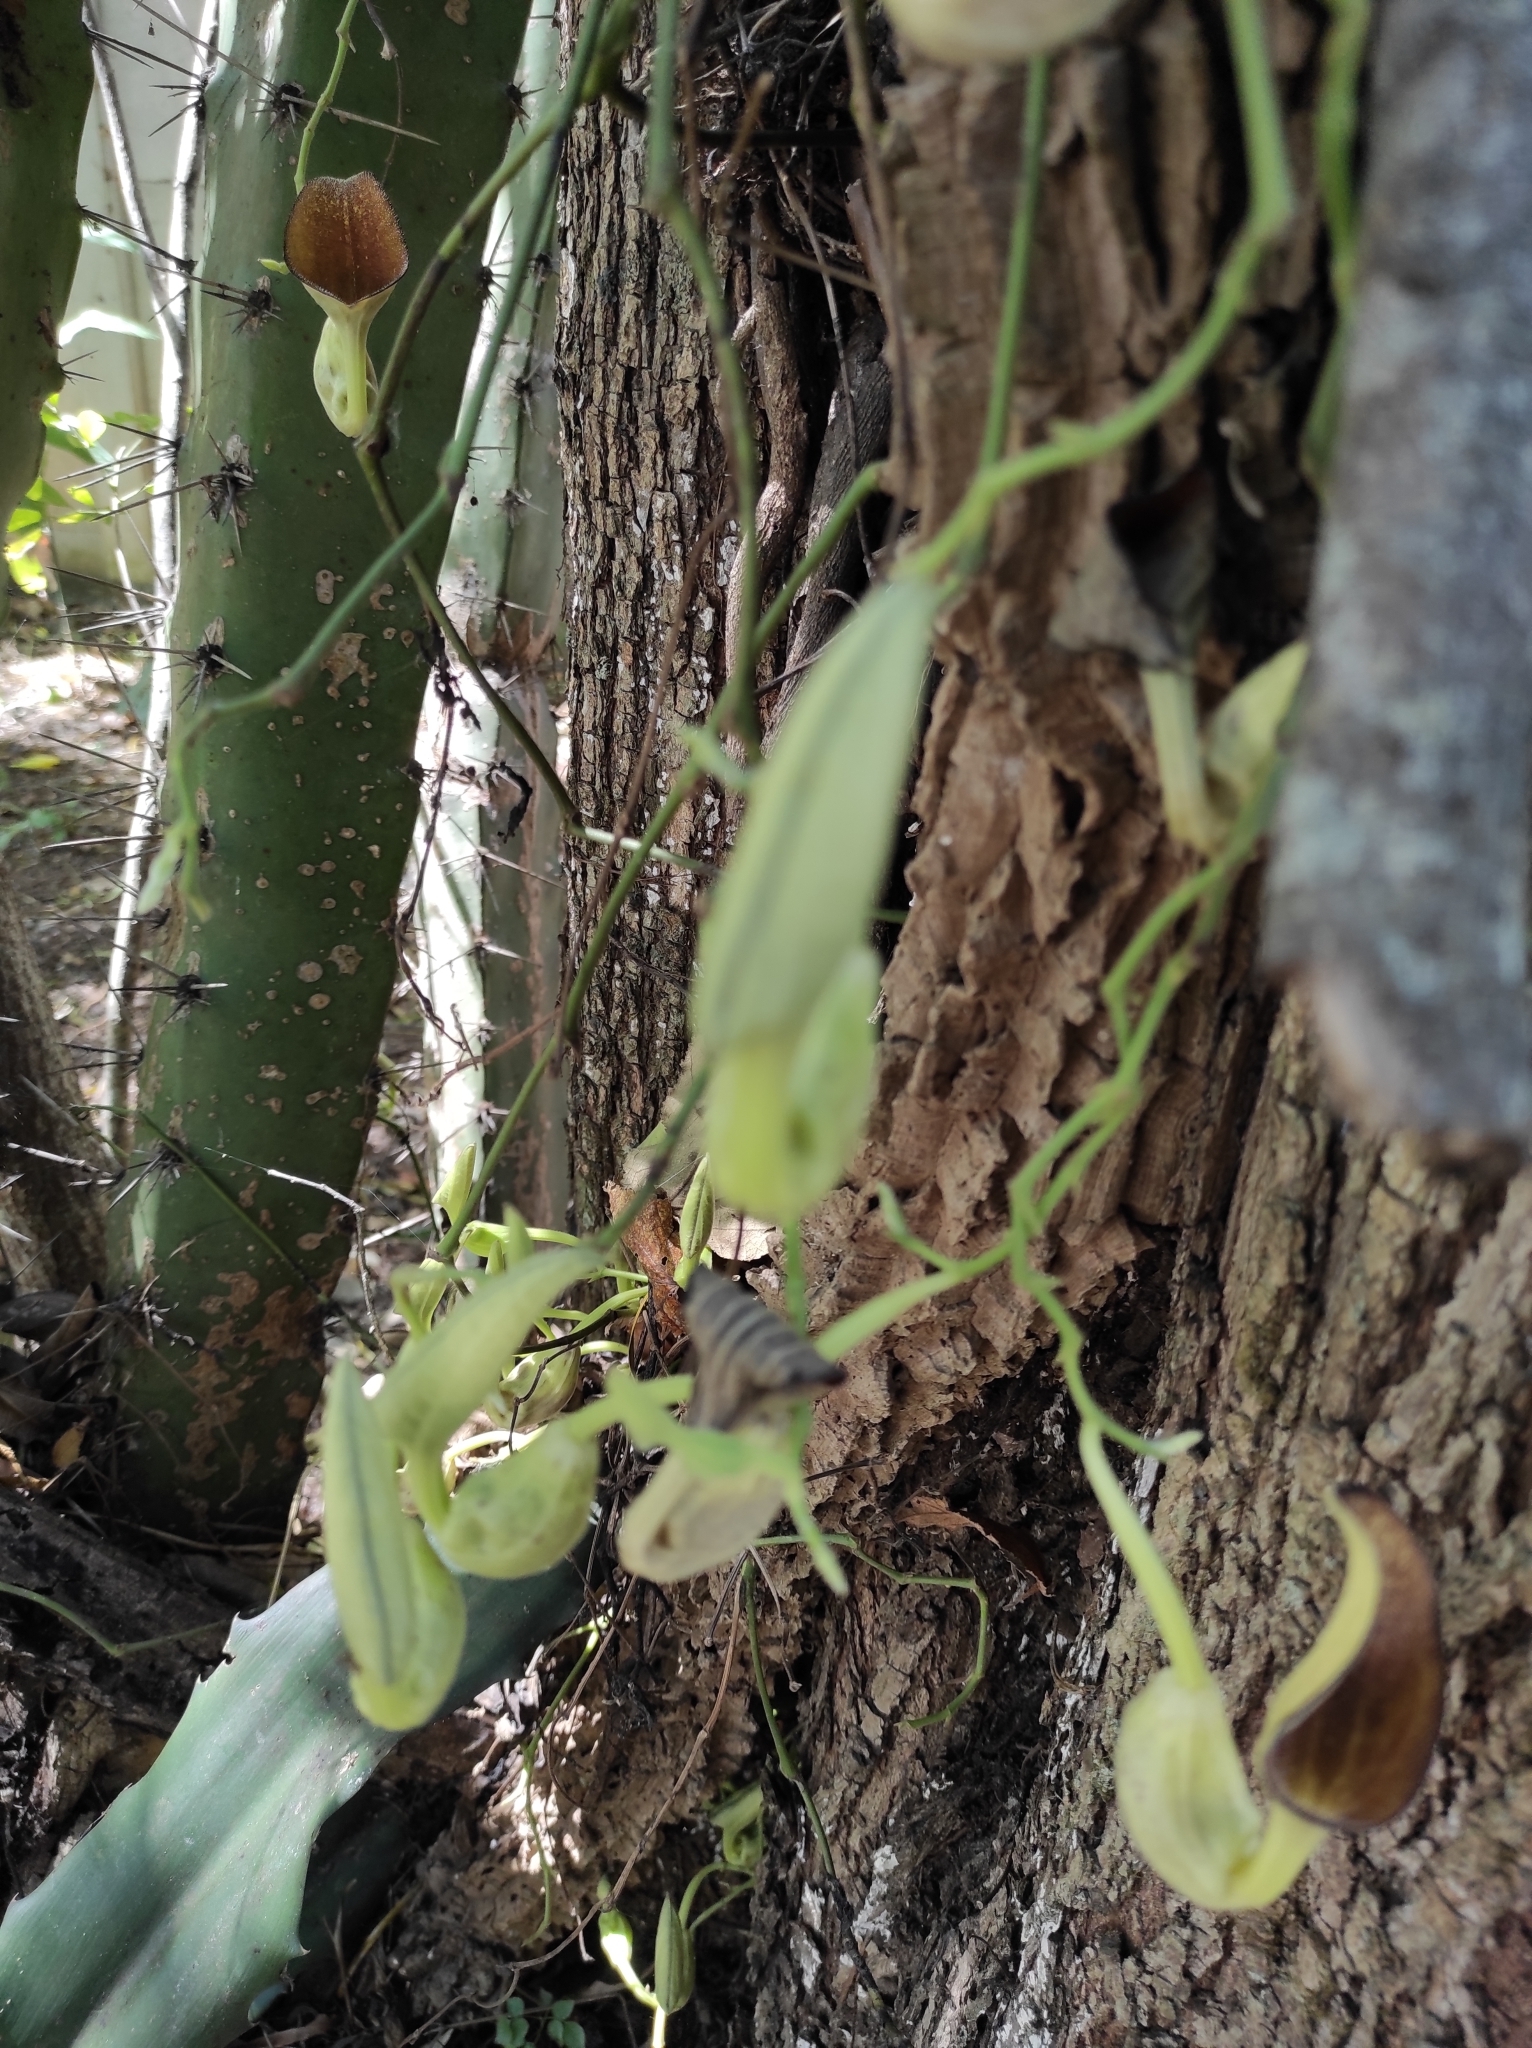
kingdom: Plantae
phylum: Tracheophyta
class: Magnoliopsida
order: Piperales
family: Aristolochiaceae
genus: Aristolochia
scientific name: Aristolochia maxima
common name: Florida dutchman's pipe
